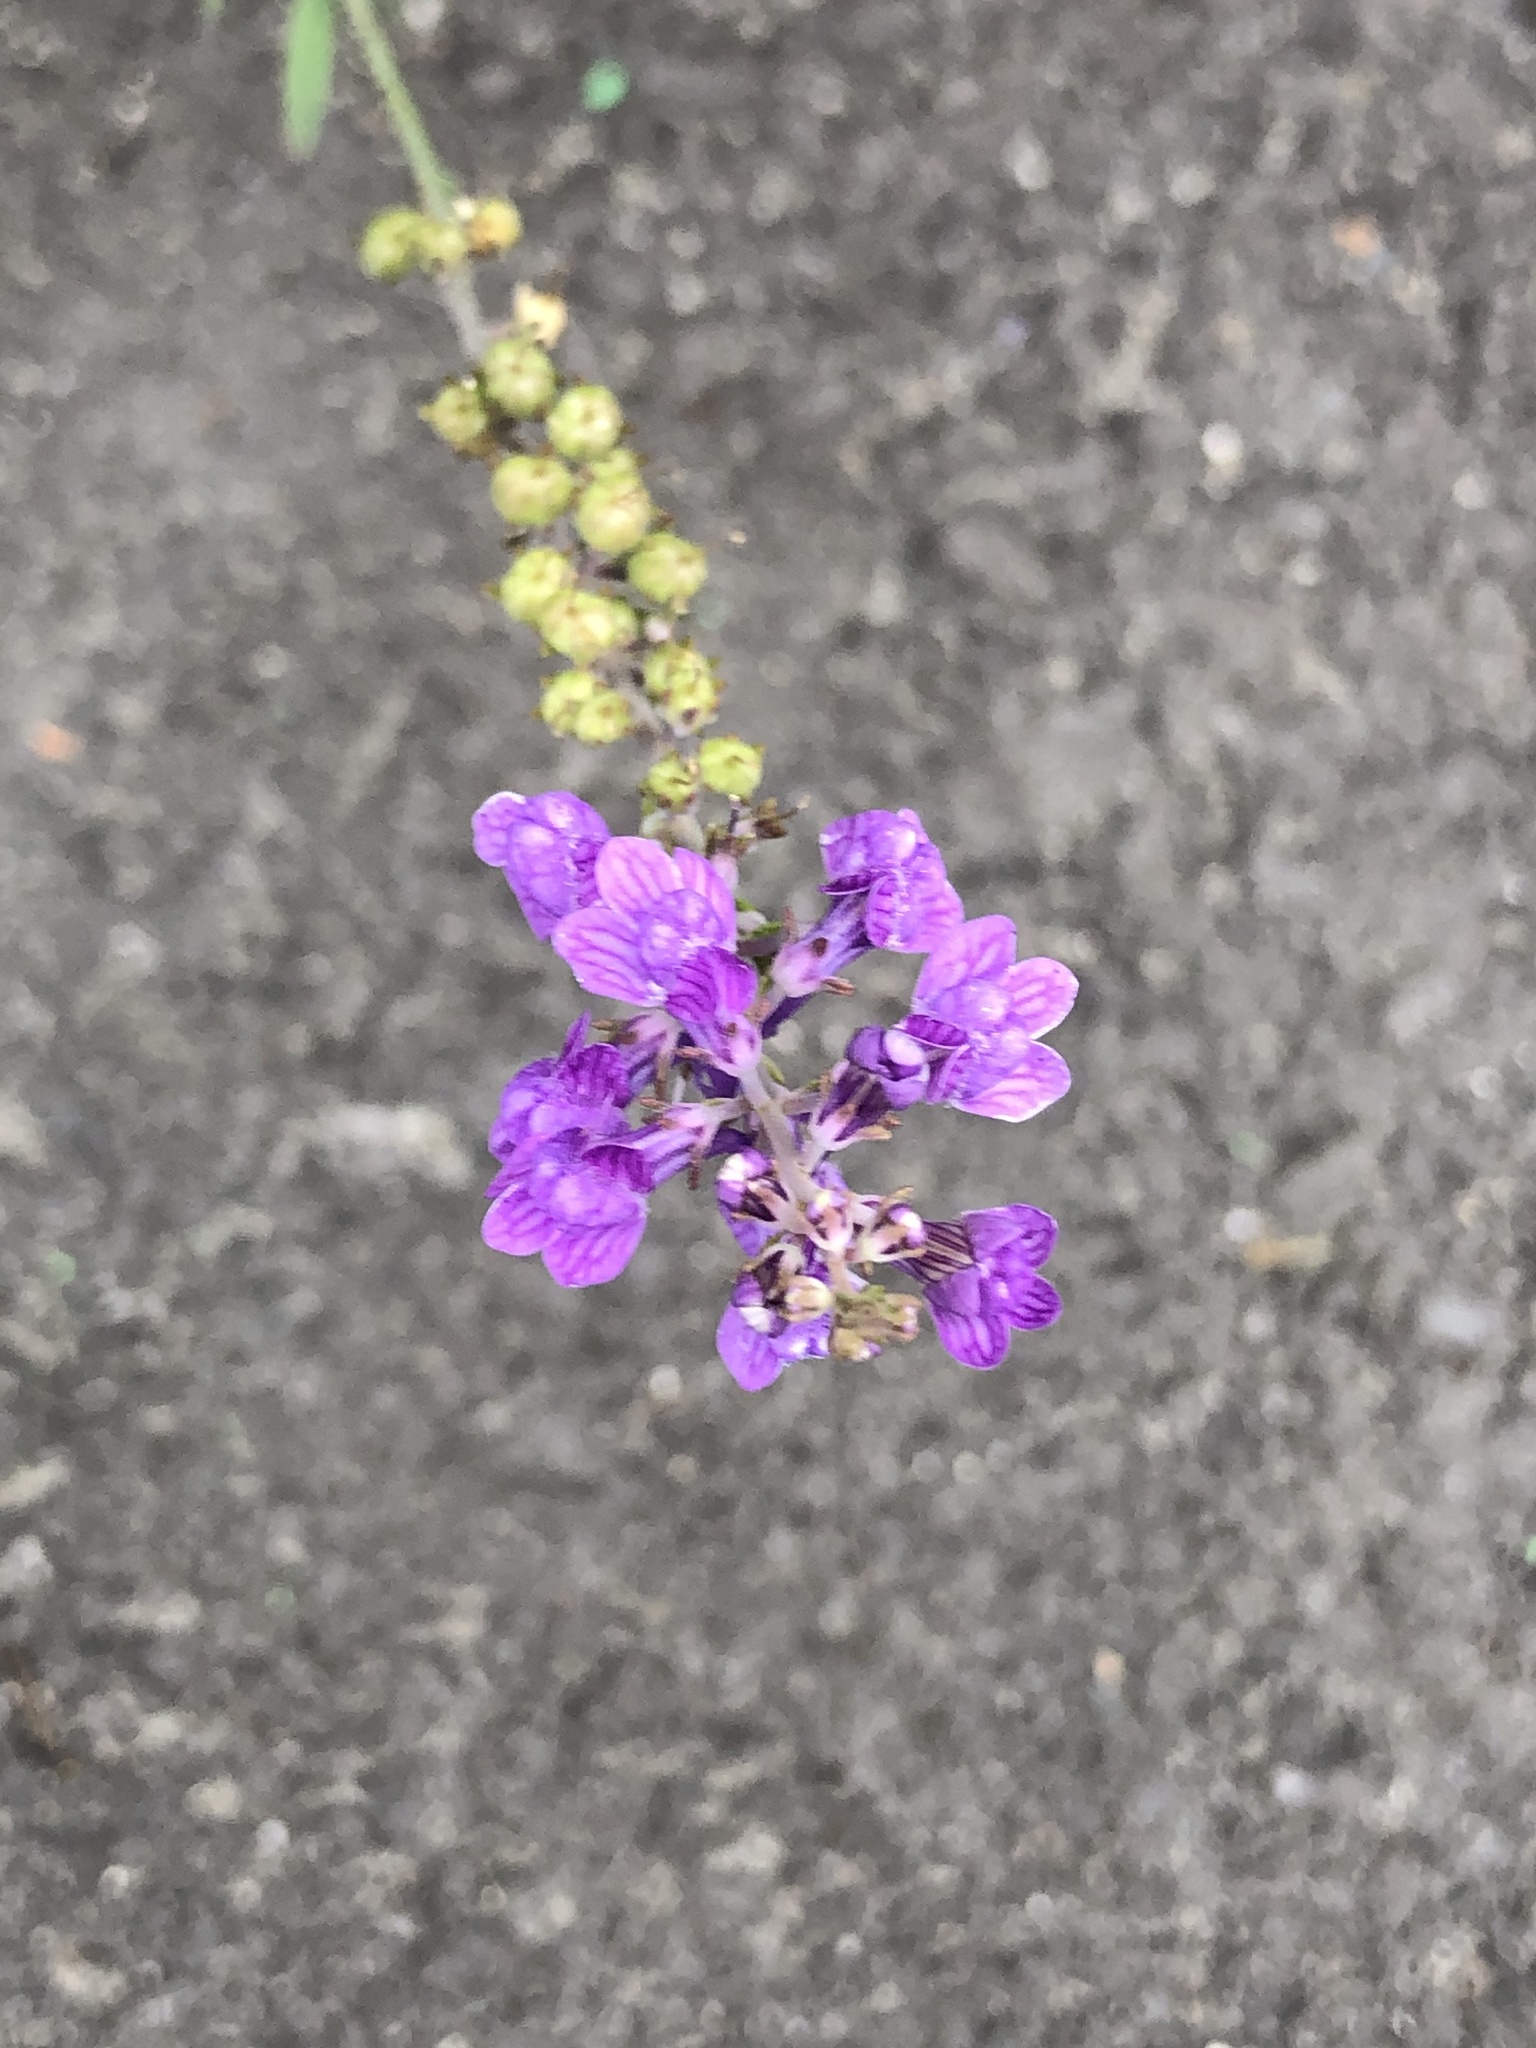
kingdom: Plantae
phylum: Tracheophyta
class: Magnoliopsida
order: Lamiales
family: Plantaginaceae
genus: Linaria
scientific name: Linaria purpurea
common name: Purple toadflax
